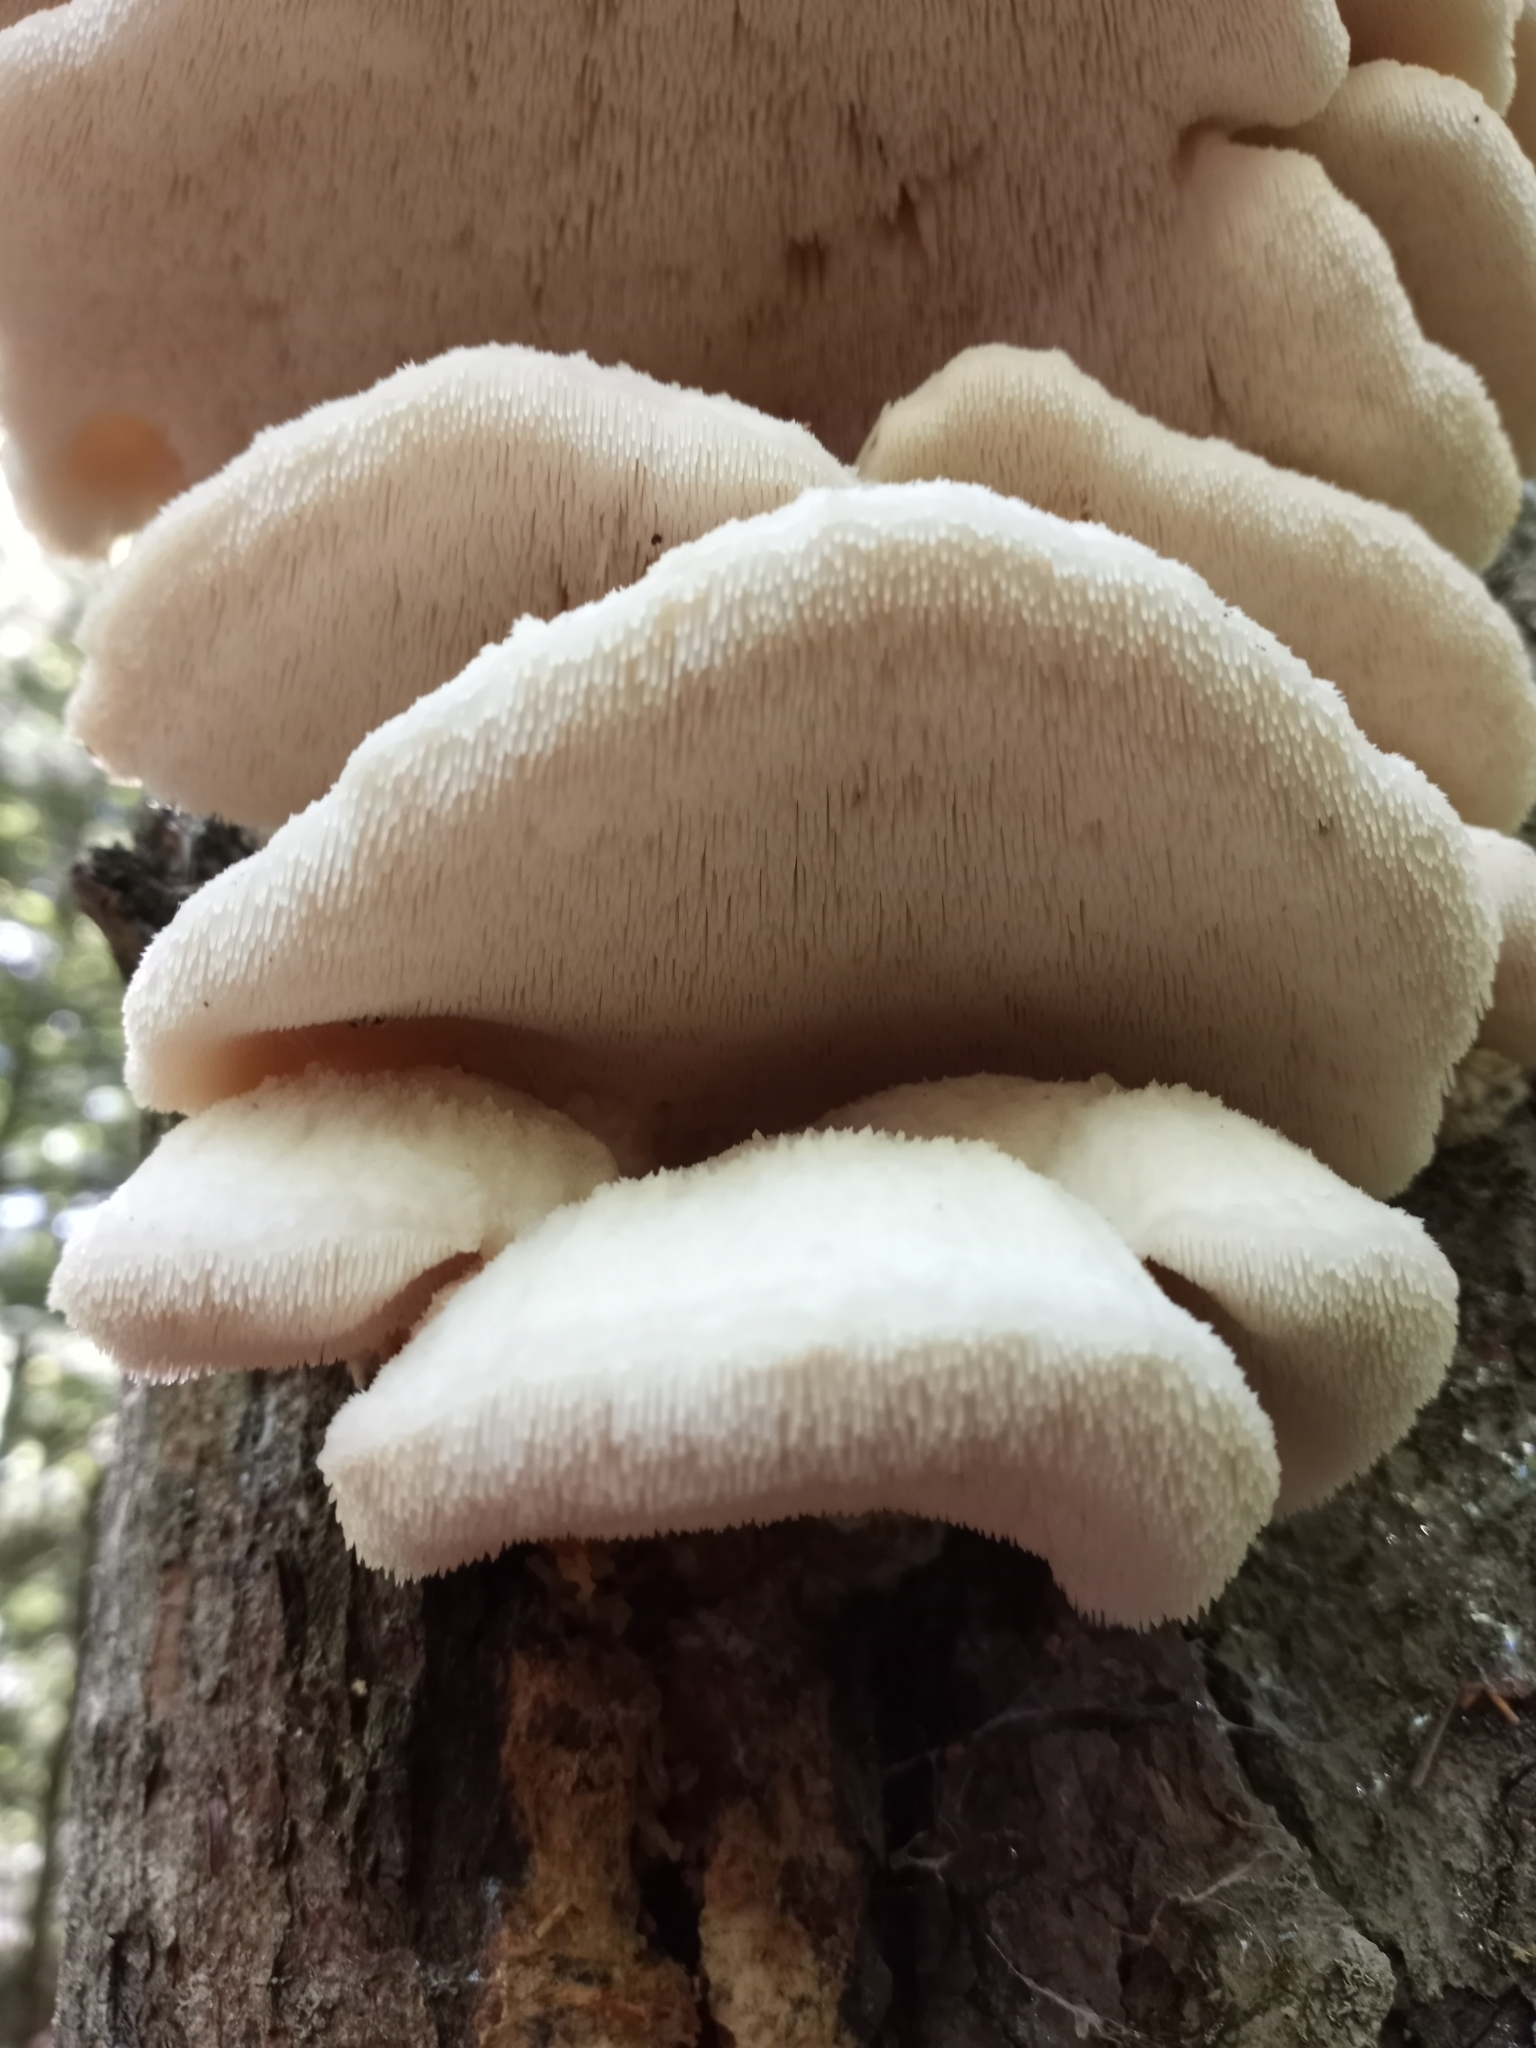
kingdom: Fungi
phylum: Basidiomycota
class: Agaricomycetes
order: Polyporales
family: Meruliaceae
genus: Climacodon
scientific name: Climacodon septentrionalis
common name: Northern tooth
